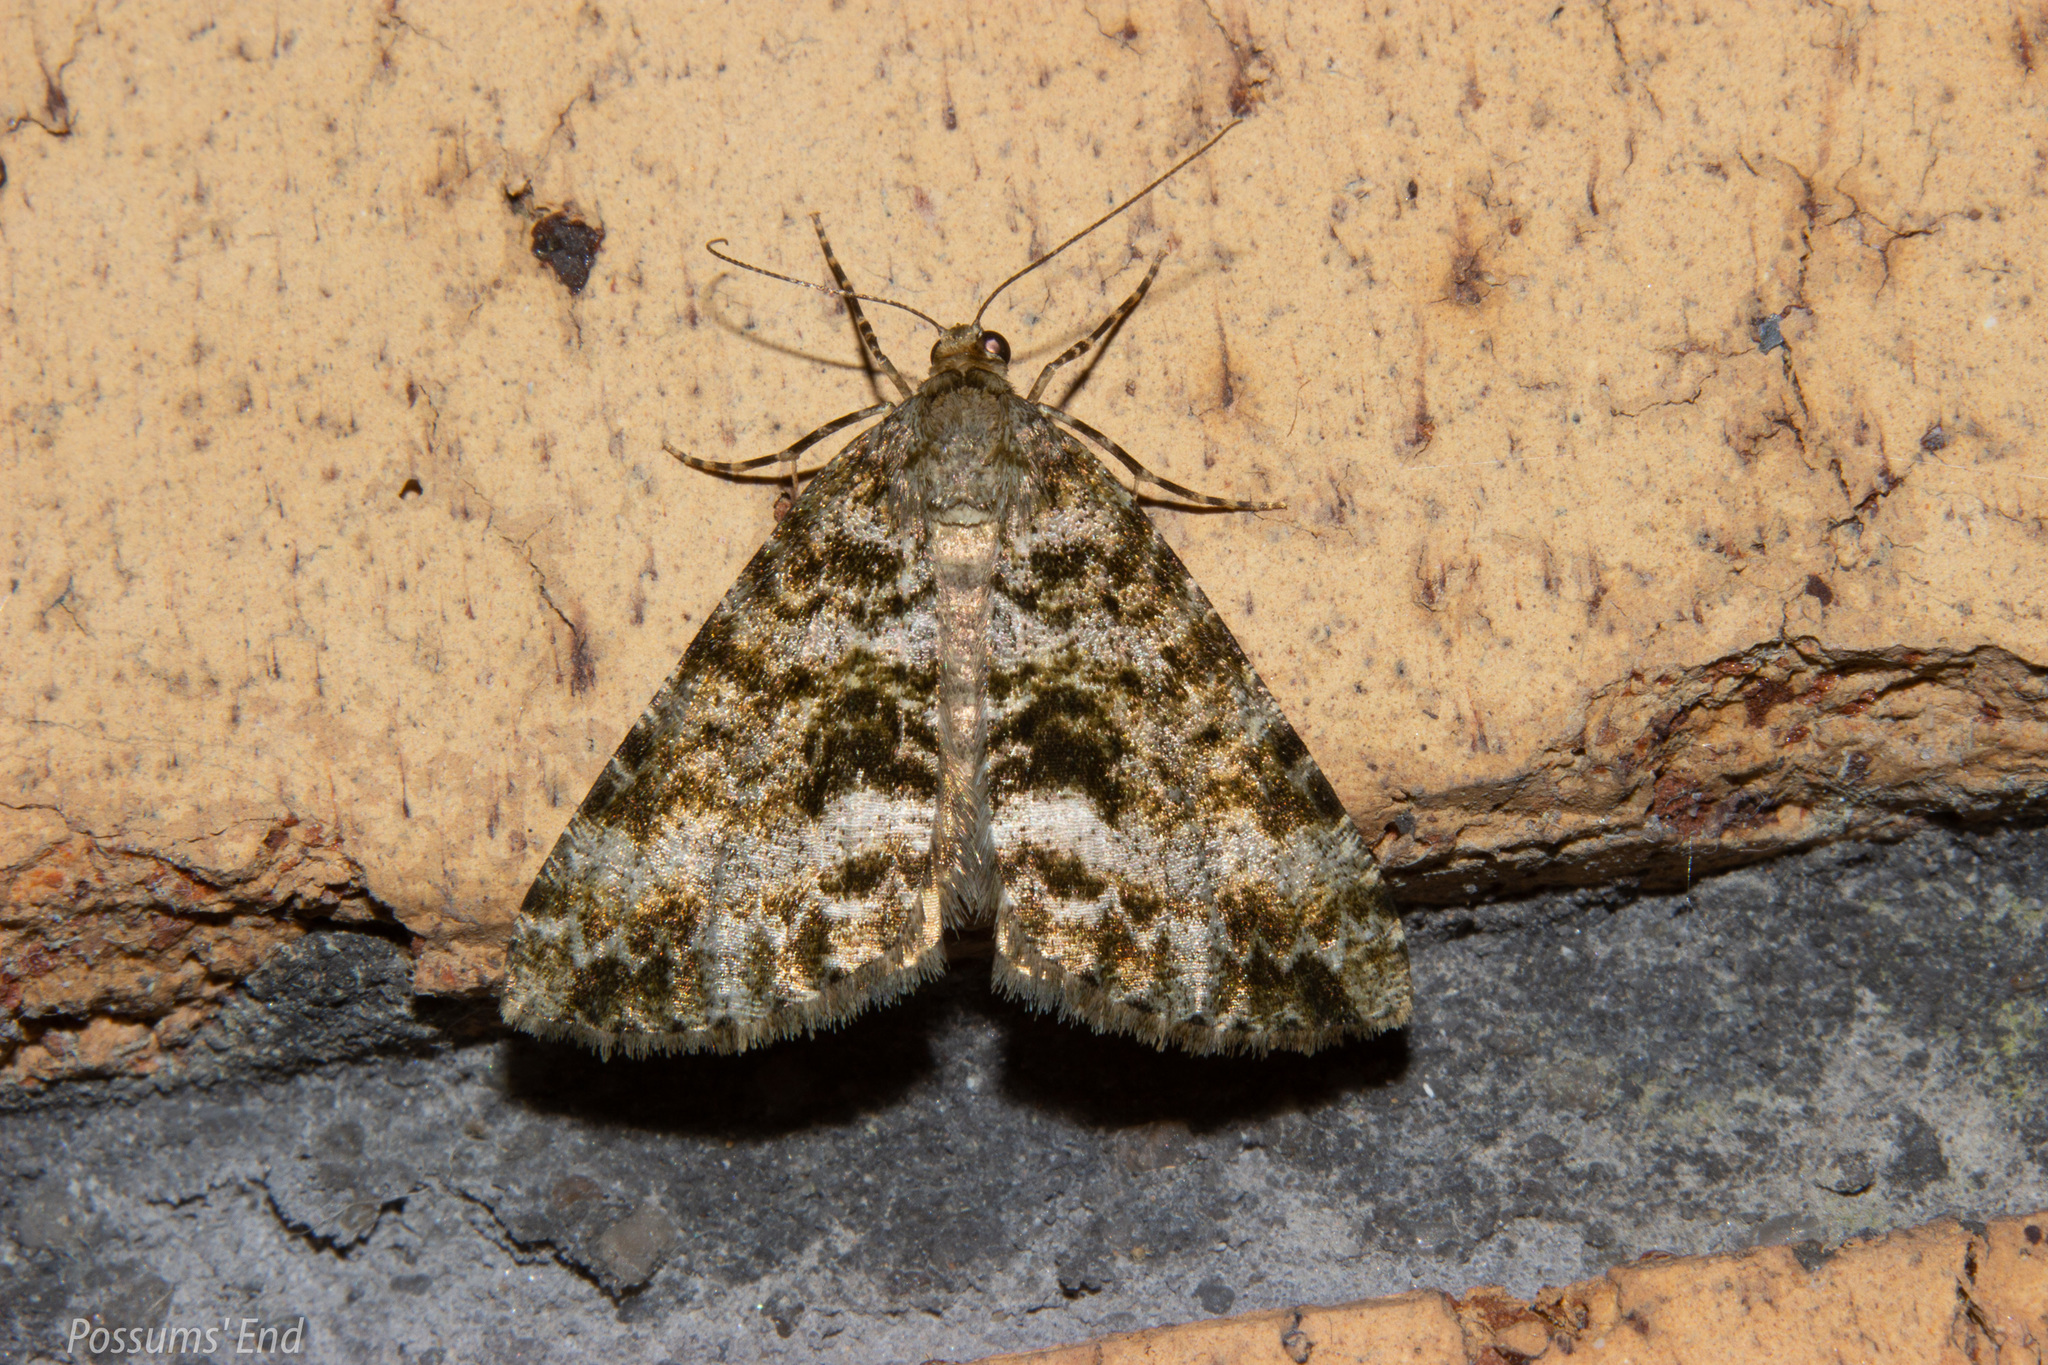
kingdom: Animalia
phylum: Arthropoda
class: Insecta
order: Lepidoptera
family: Geometridae
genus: Pseudocoremia
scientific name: Pseudocoremia lactiflua
